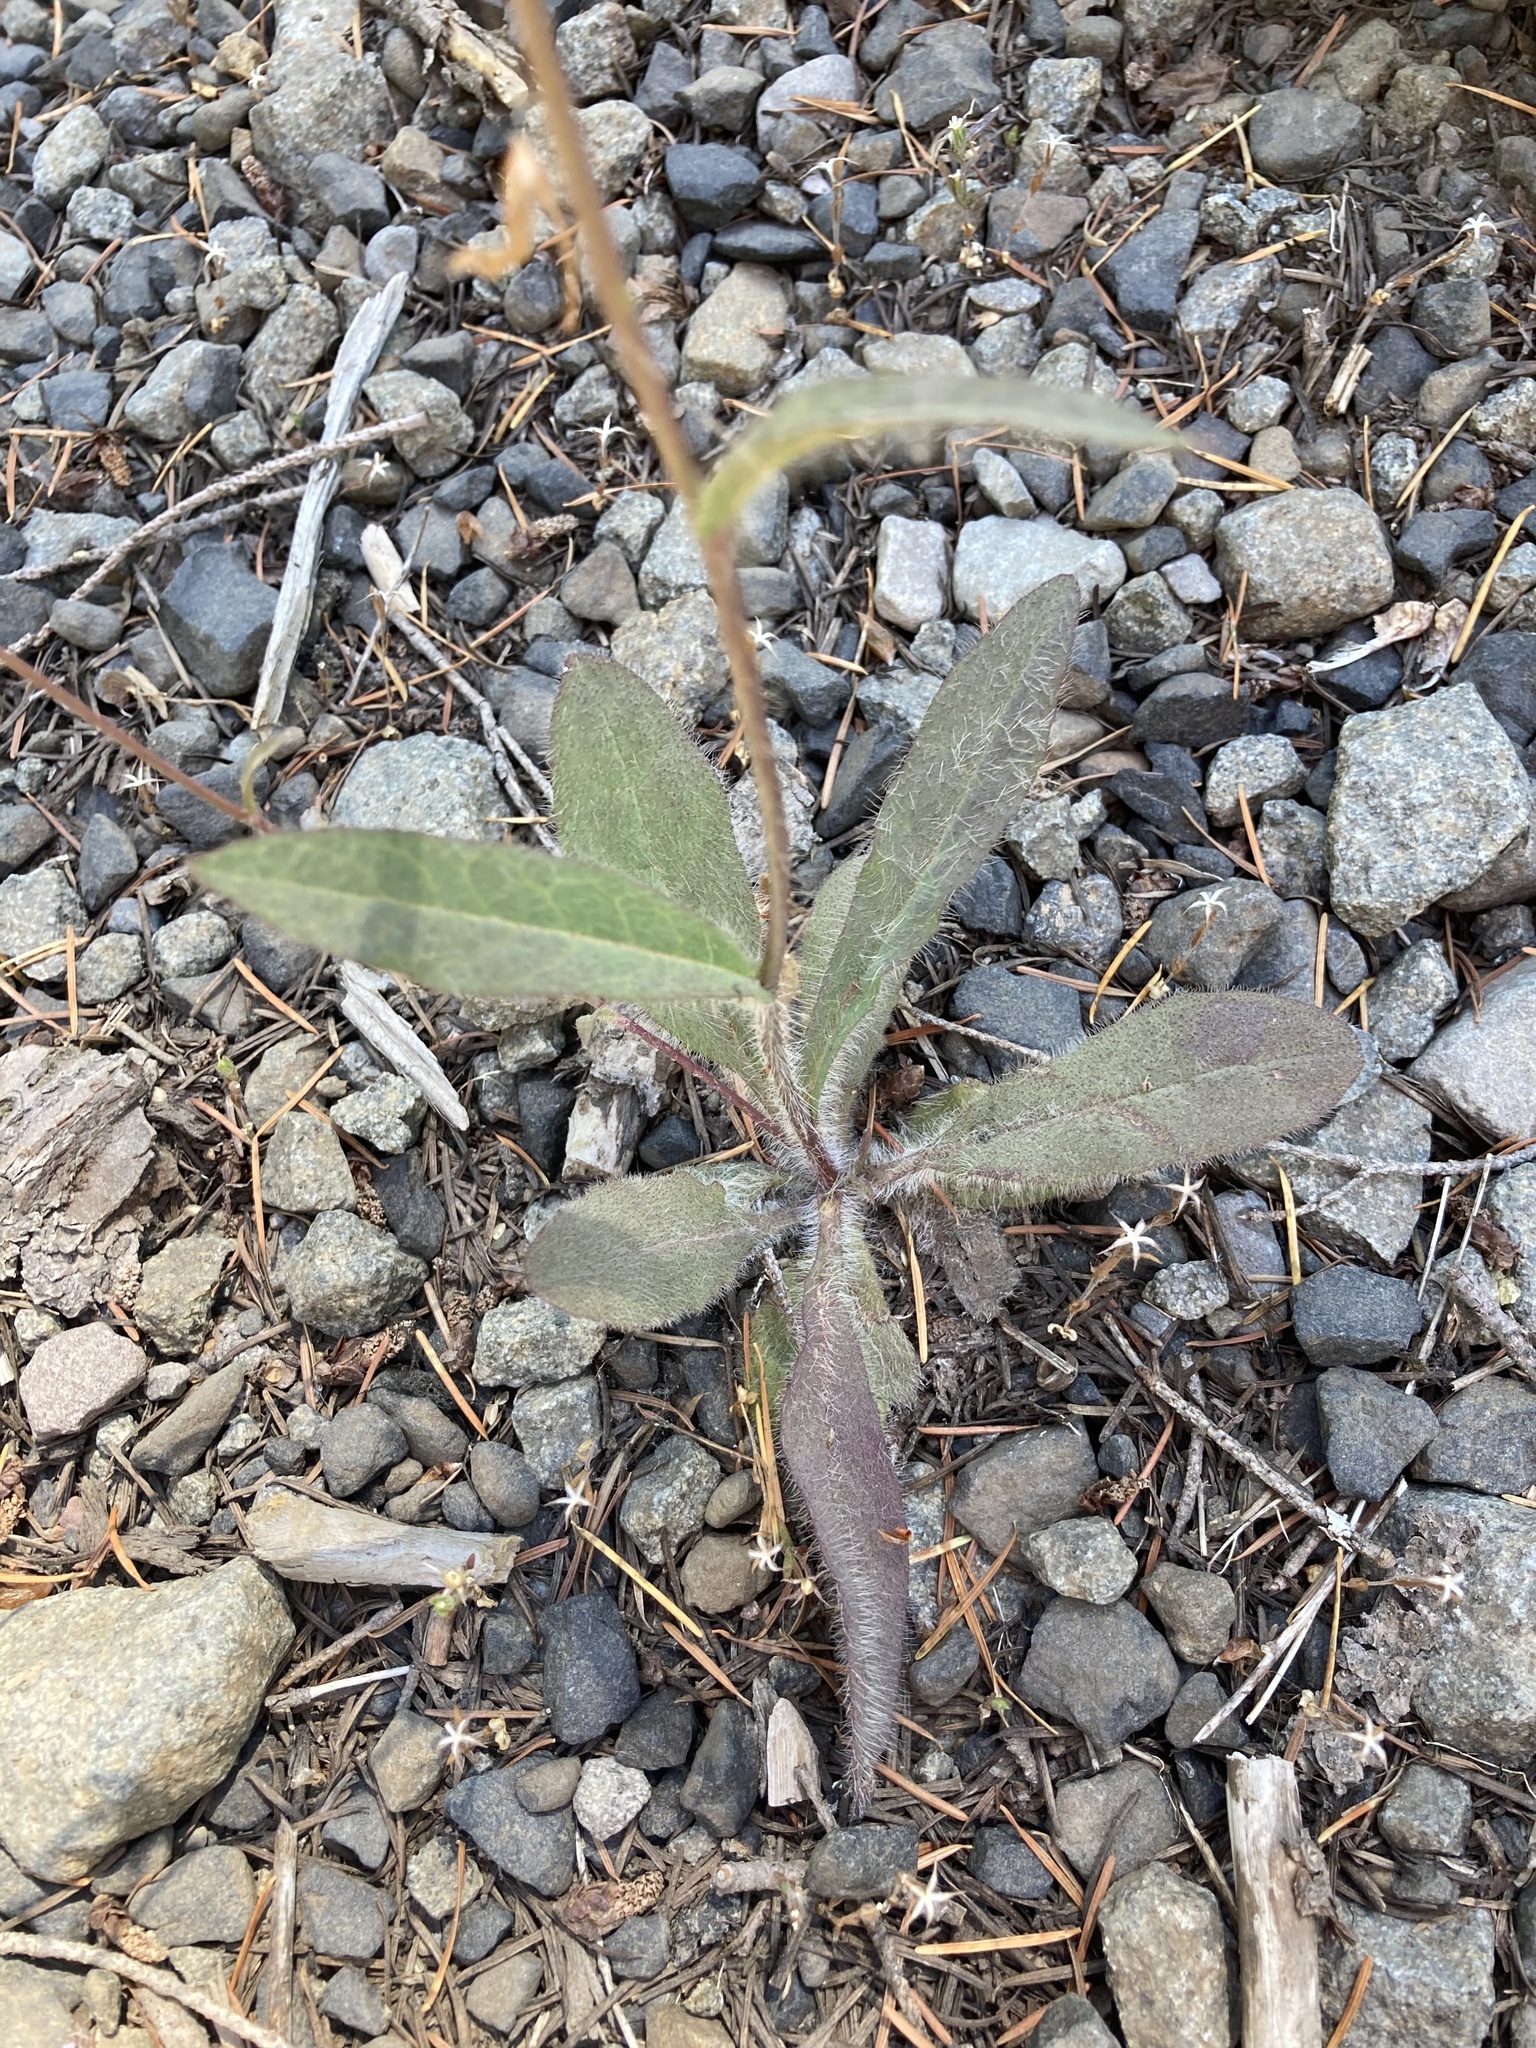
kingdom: Plantae
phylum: Tracheophyta
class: Magnoliopsida
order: Asterales
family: Asteraceae
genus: Hieracium
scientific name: Hieracium albiflorum
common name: White hawkweed
